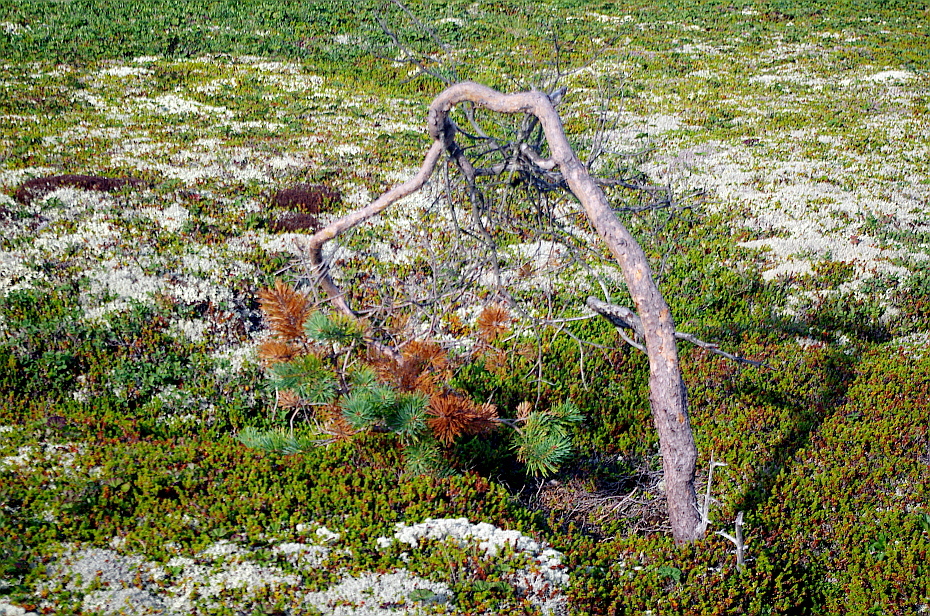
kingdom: Plantae
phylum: Tracheophyta
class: Pinopsida
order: Pinales
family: Pinaceae
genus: Pinus
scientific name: Pinus sylvestris
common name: Scots pine
